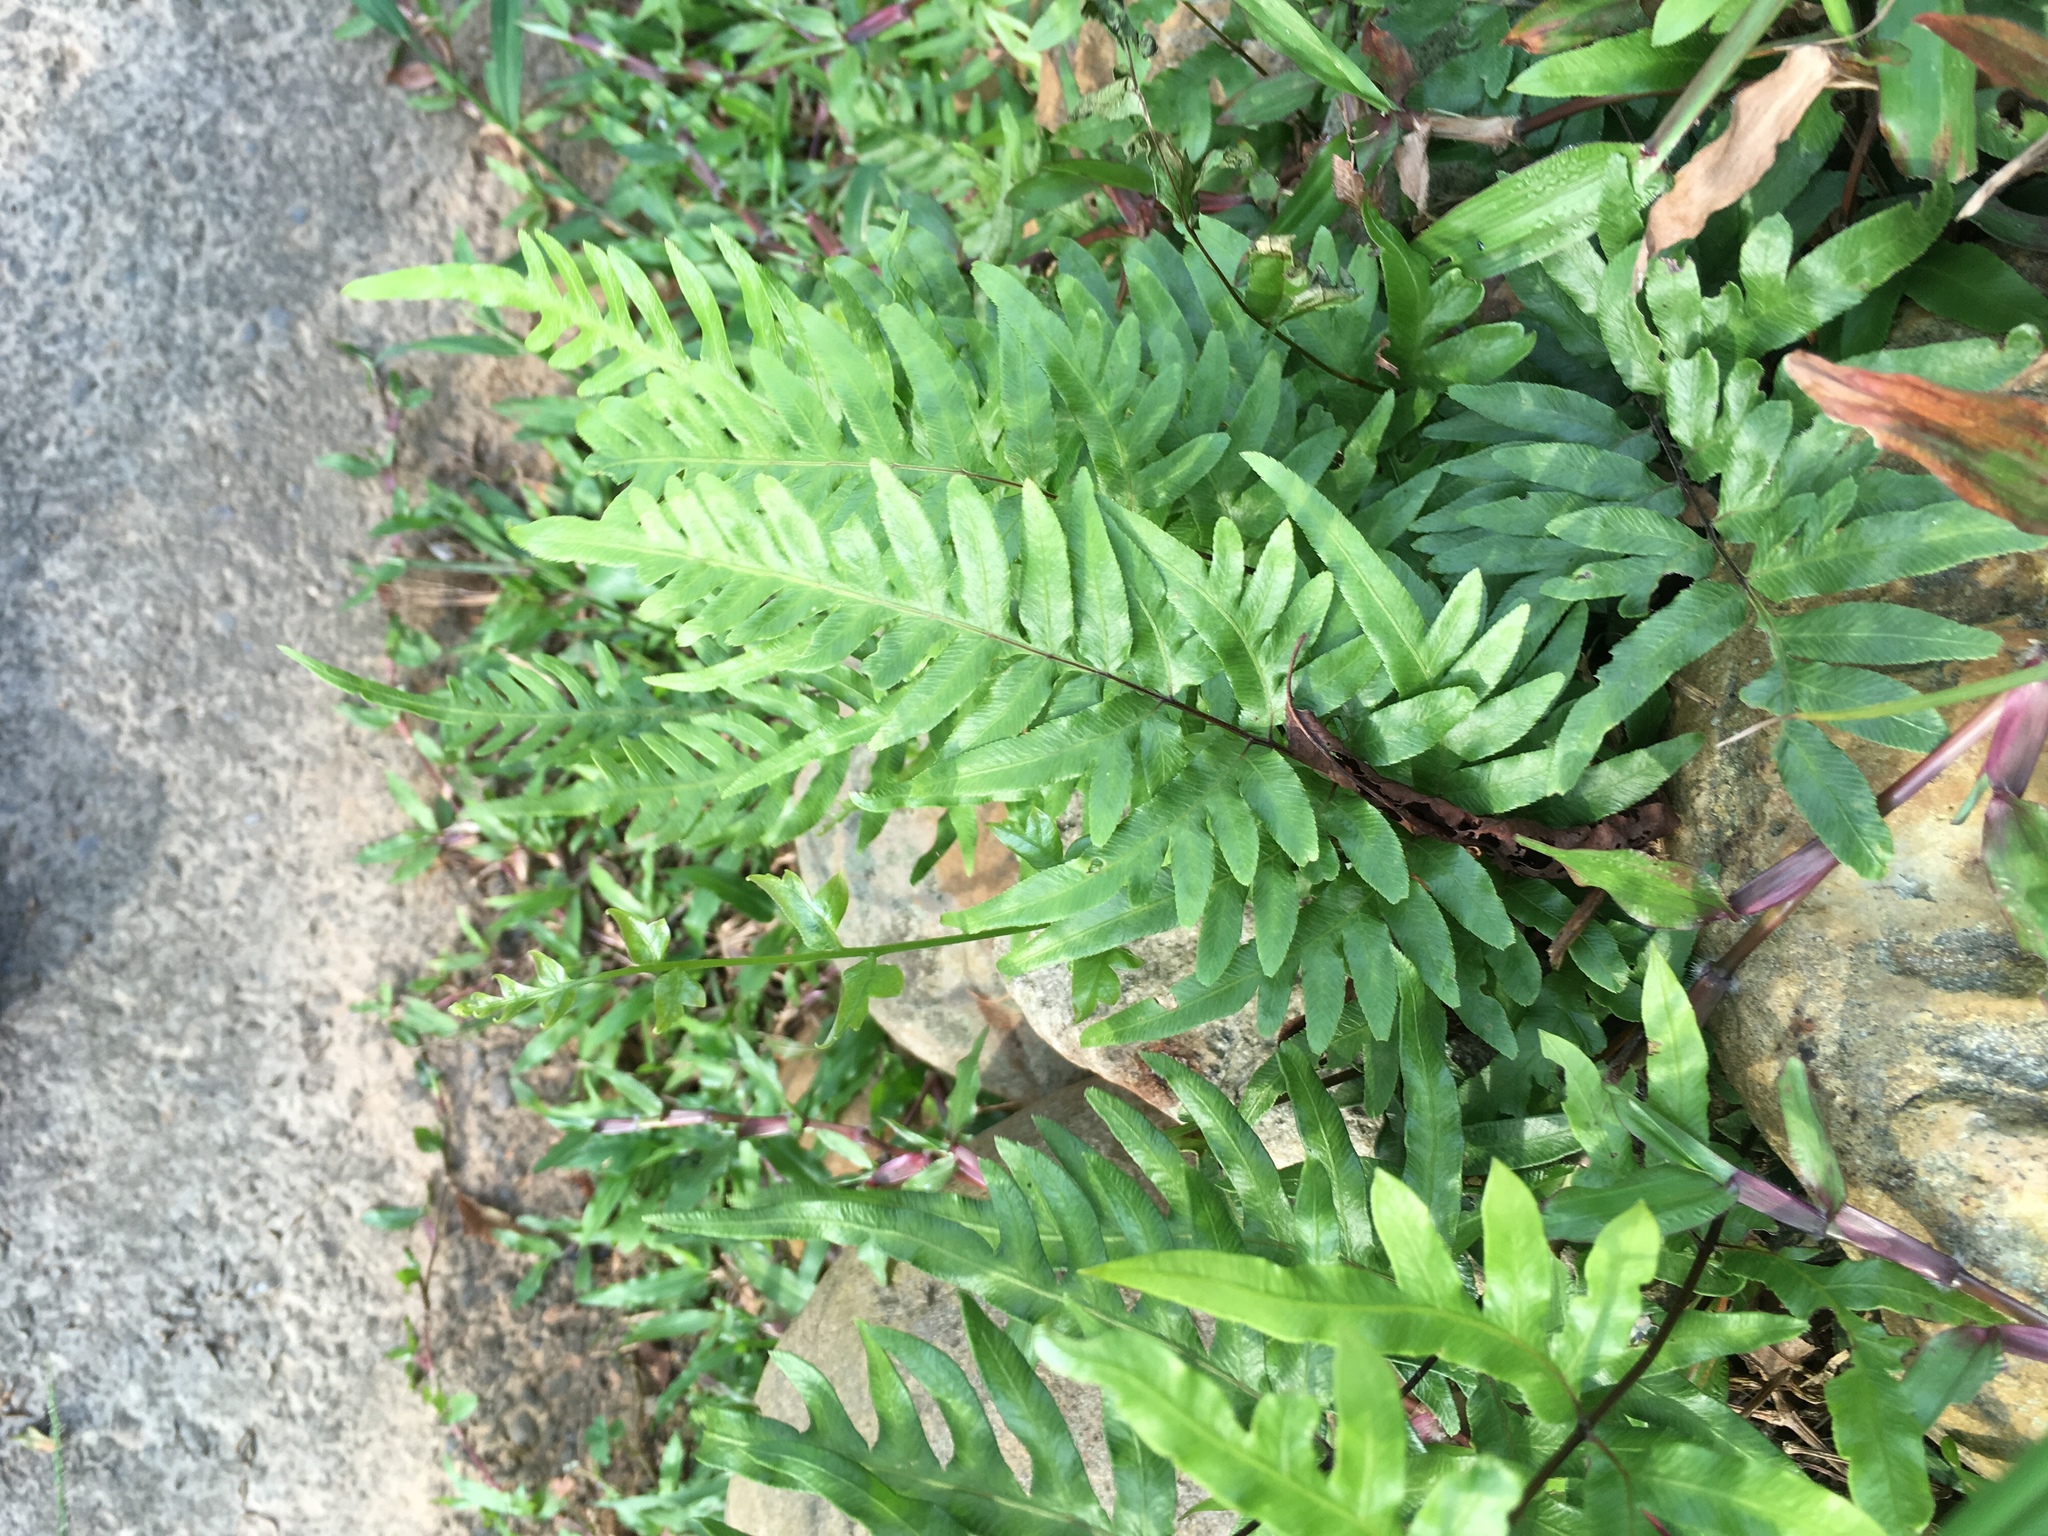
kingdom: Plantae
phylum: Tracheophyta
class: Polypodiopsida
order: Polypodiales
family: Pteridaceae
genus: Pteris
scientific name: Pteris semipinnata
